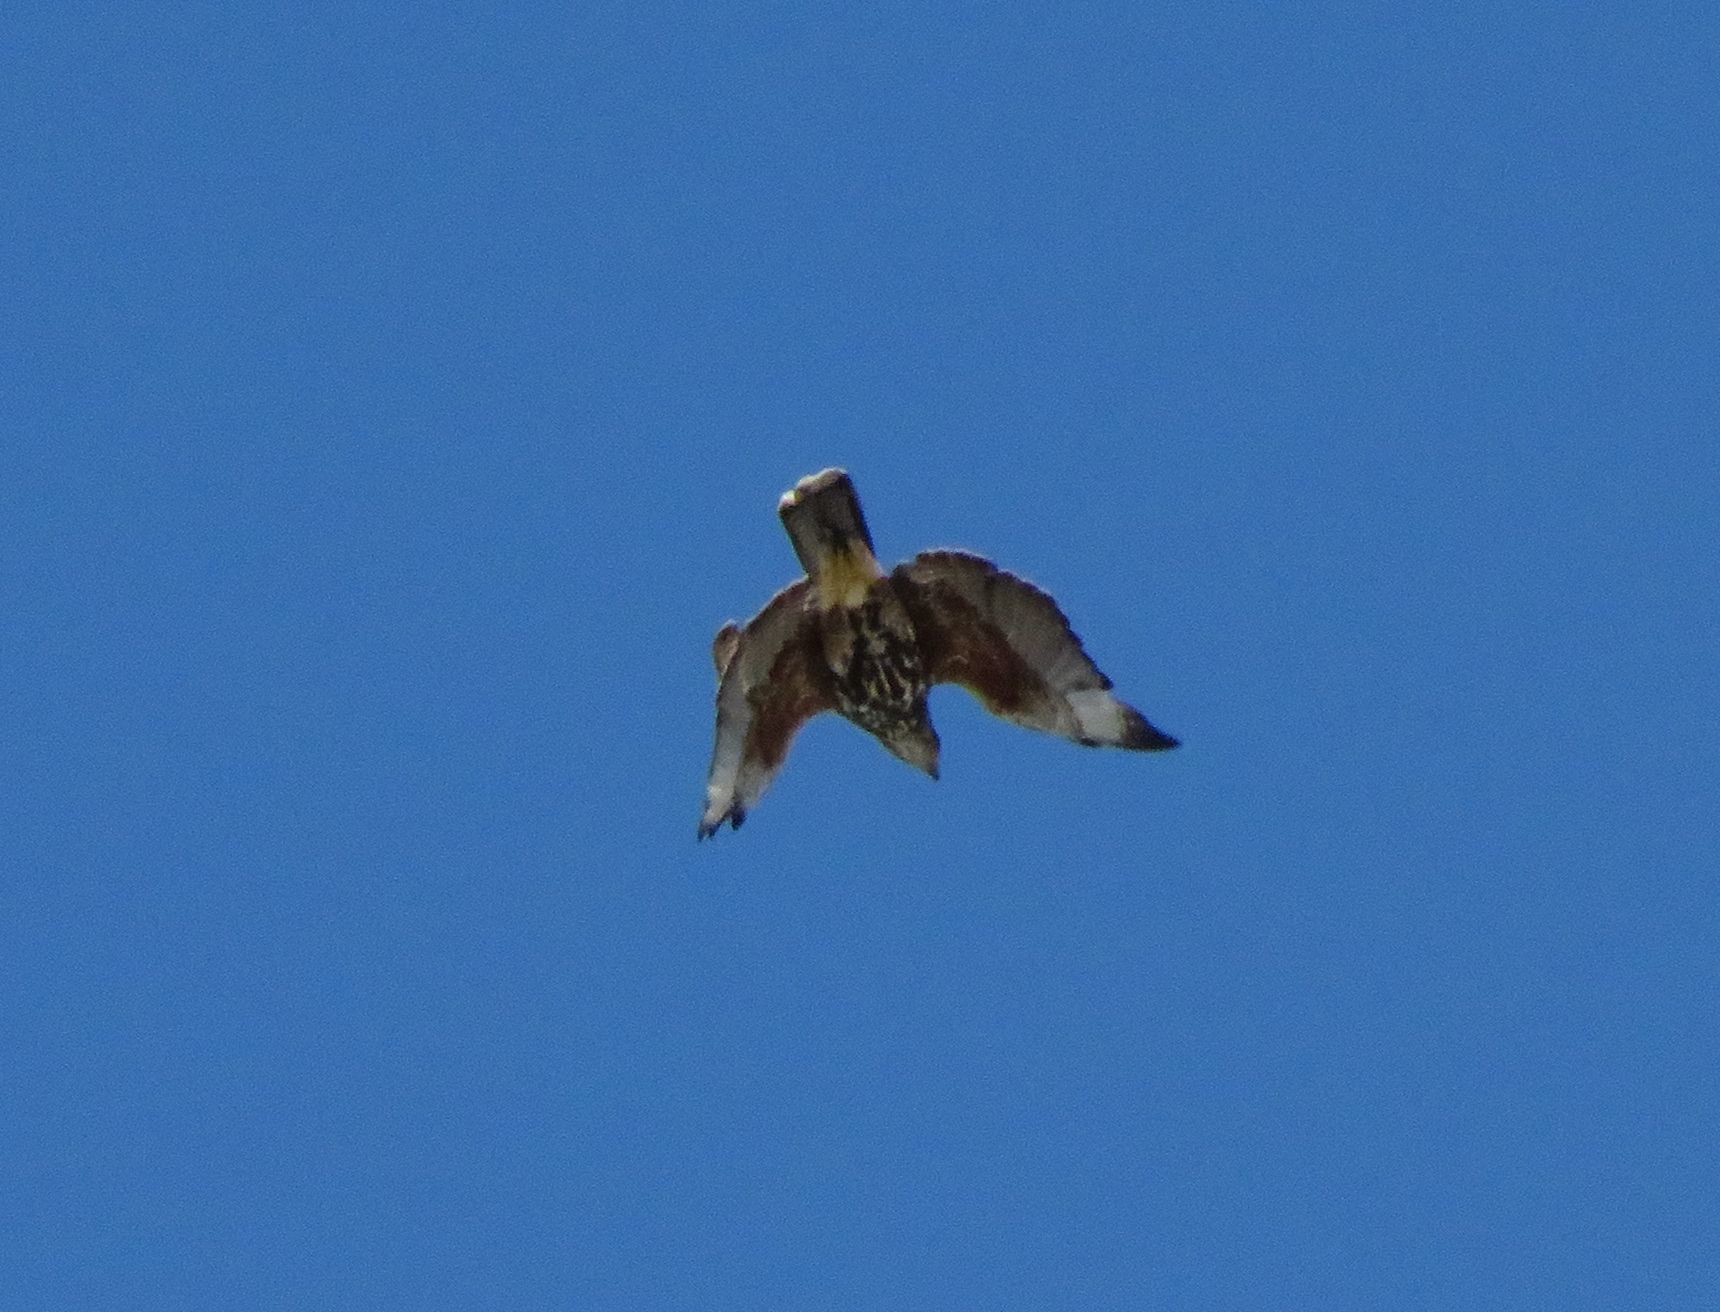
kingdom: Animalia
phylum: Chordata
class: Aves
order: Accipitriformes
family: Accipitridae
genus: Parabuteo
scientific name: Parabuteo unicinctus
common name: Harris's hawk
